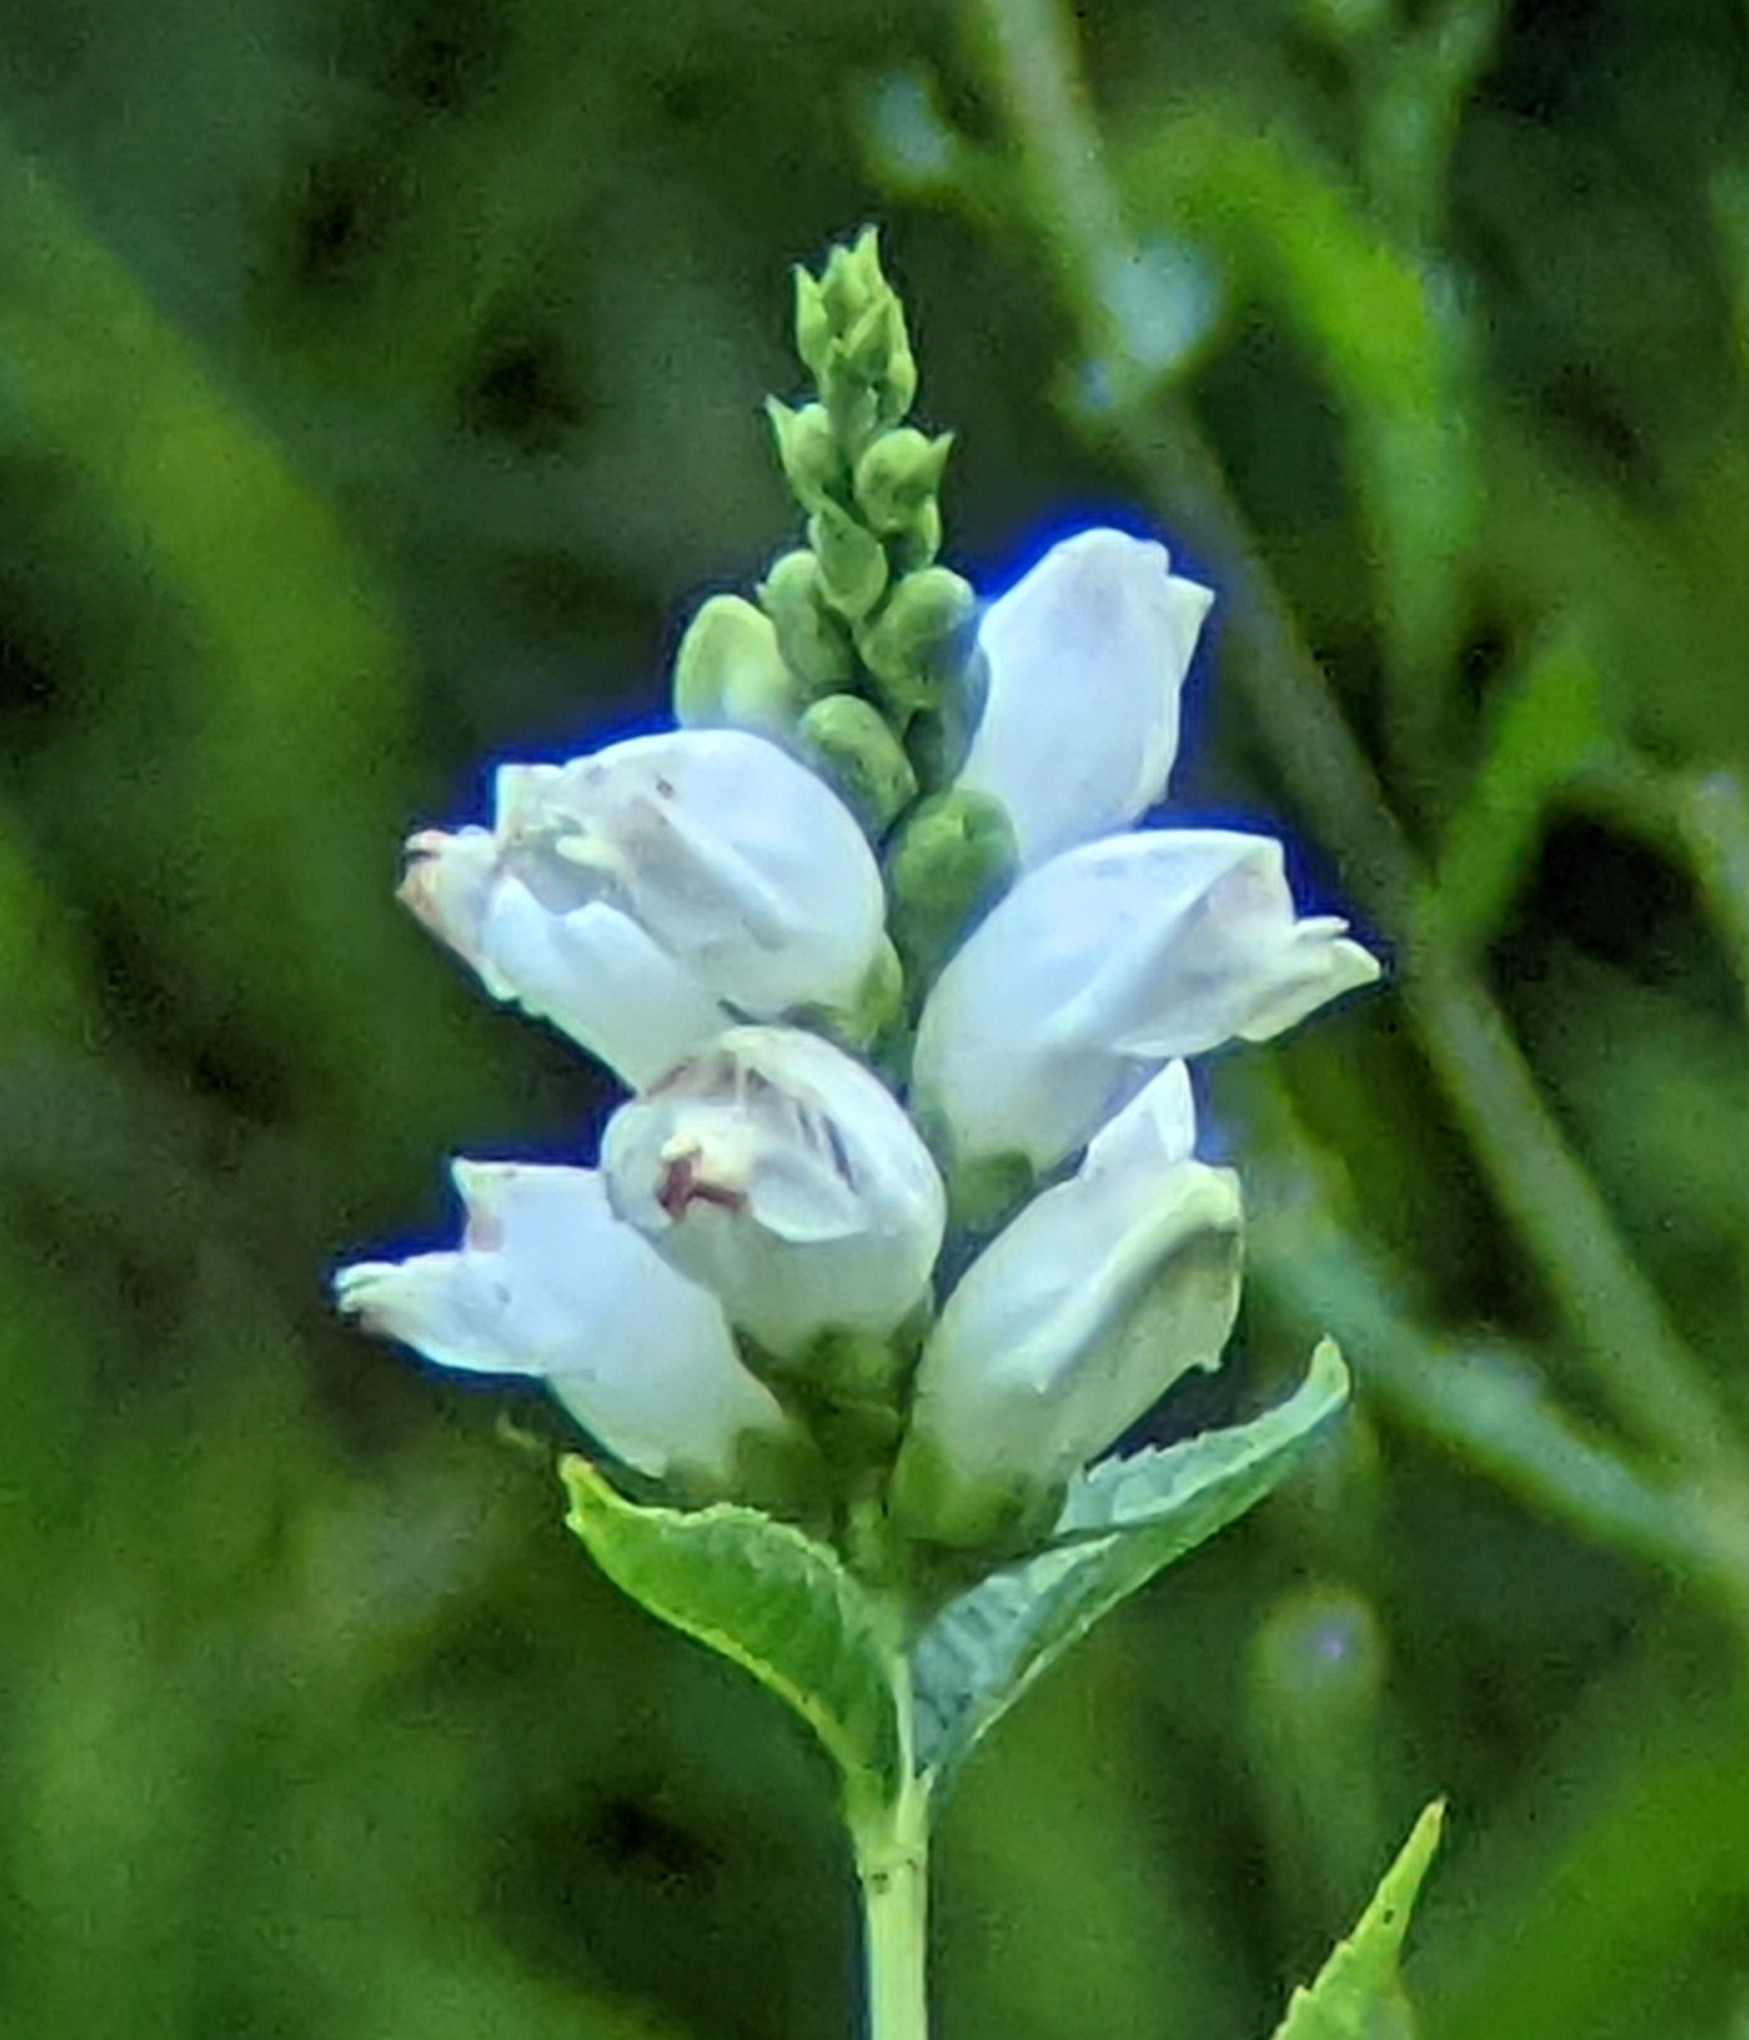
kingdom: Plantae
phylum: Tracheophyta
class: Magnoliopsida
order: Lamiales
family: Plantaginaceae
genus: Chelone
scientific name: Chelone glabra
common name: Snakehead
